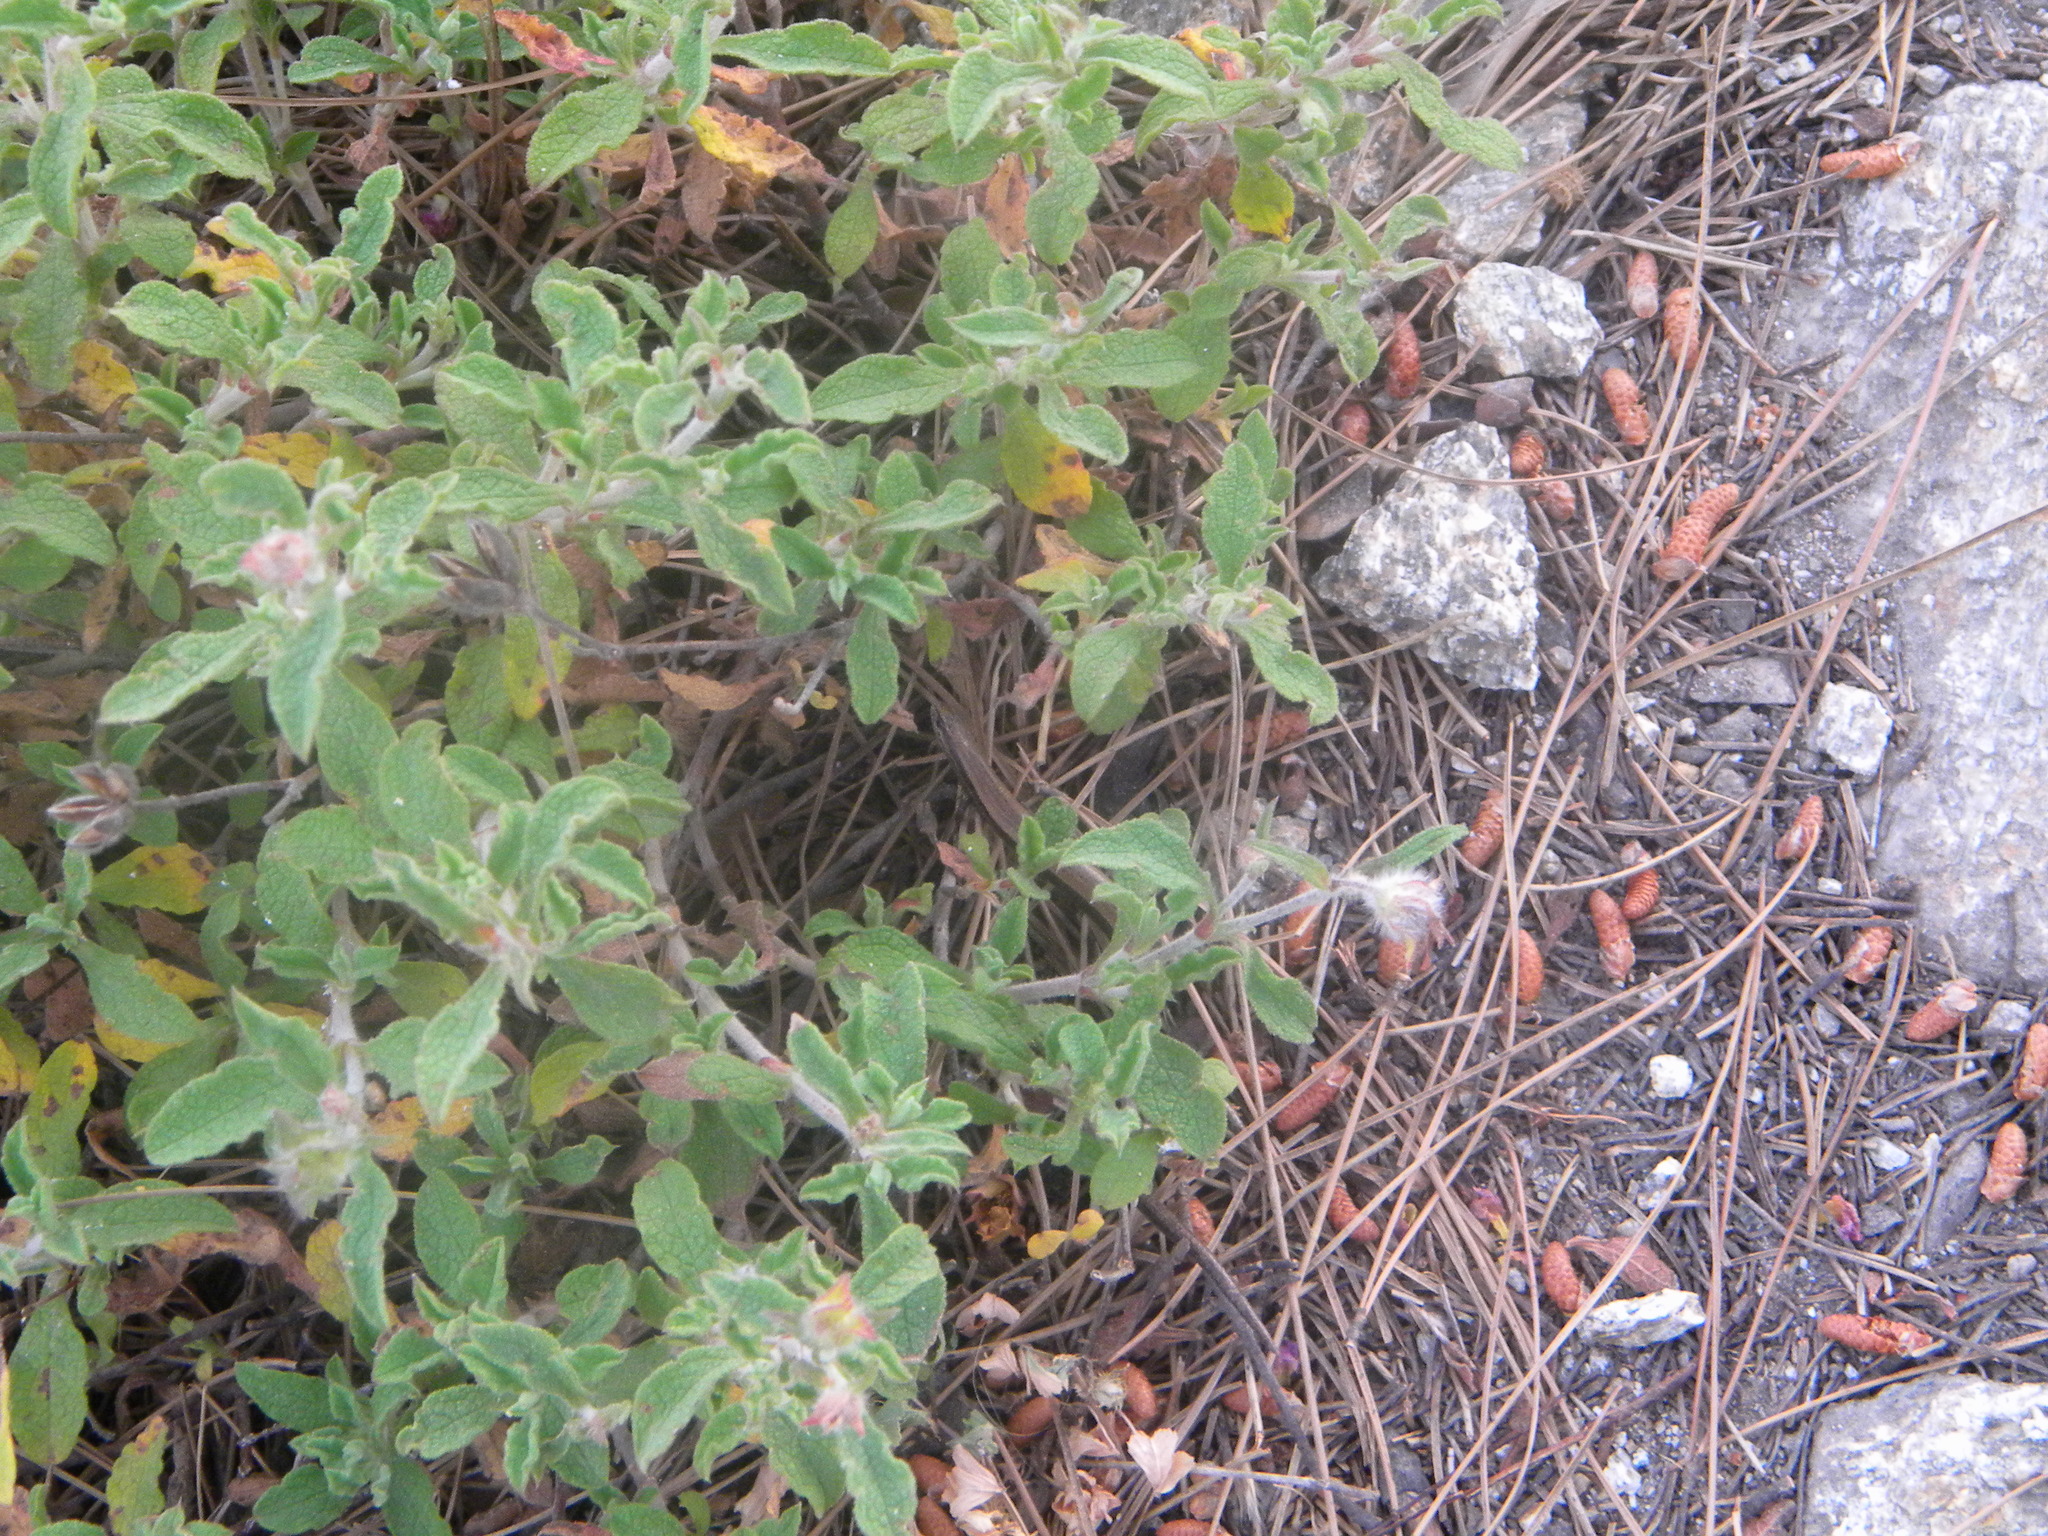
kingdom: Animalia
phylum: Chordata
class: Squamata
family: Scincidae
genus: Ablepharus
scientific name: Ablepharus kitaibelii
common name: Juniper skink
